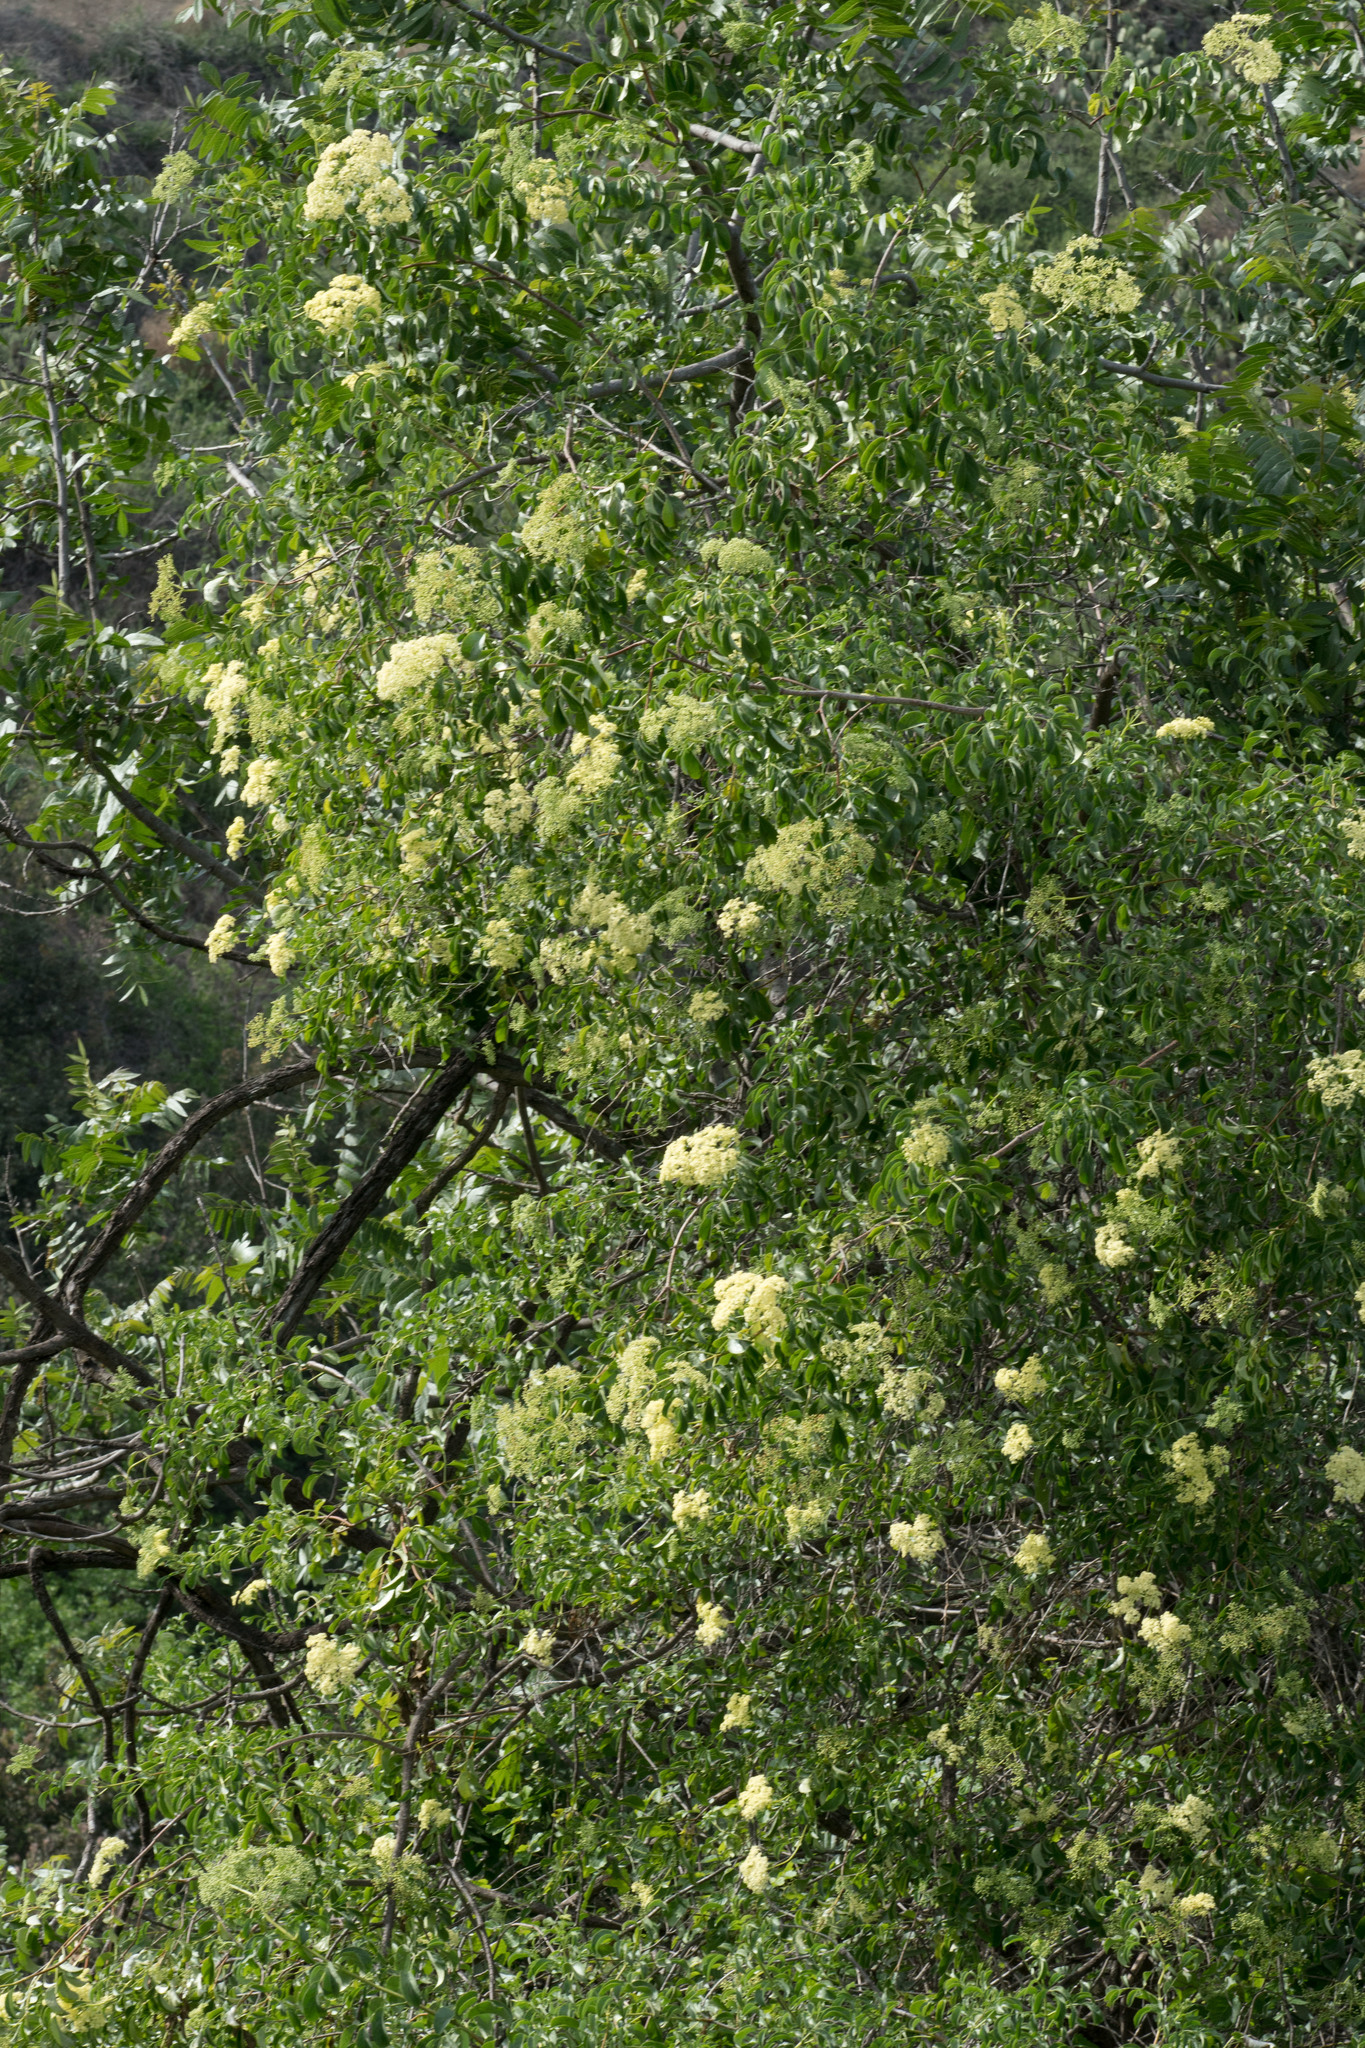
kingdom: Plantae
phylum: Tracheophyta
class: Magnoliopsida
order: Dipsacales
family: Viburnaceae
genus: Sambucus
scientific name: Sambucus cerulea
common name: Blue elder
